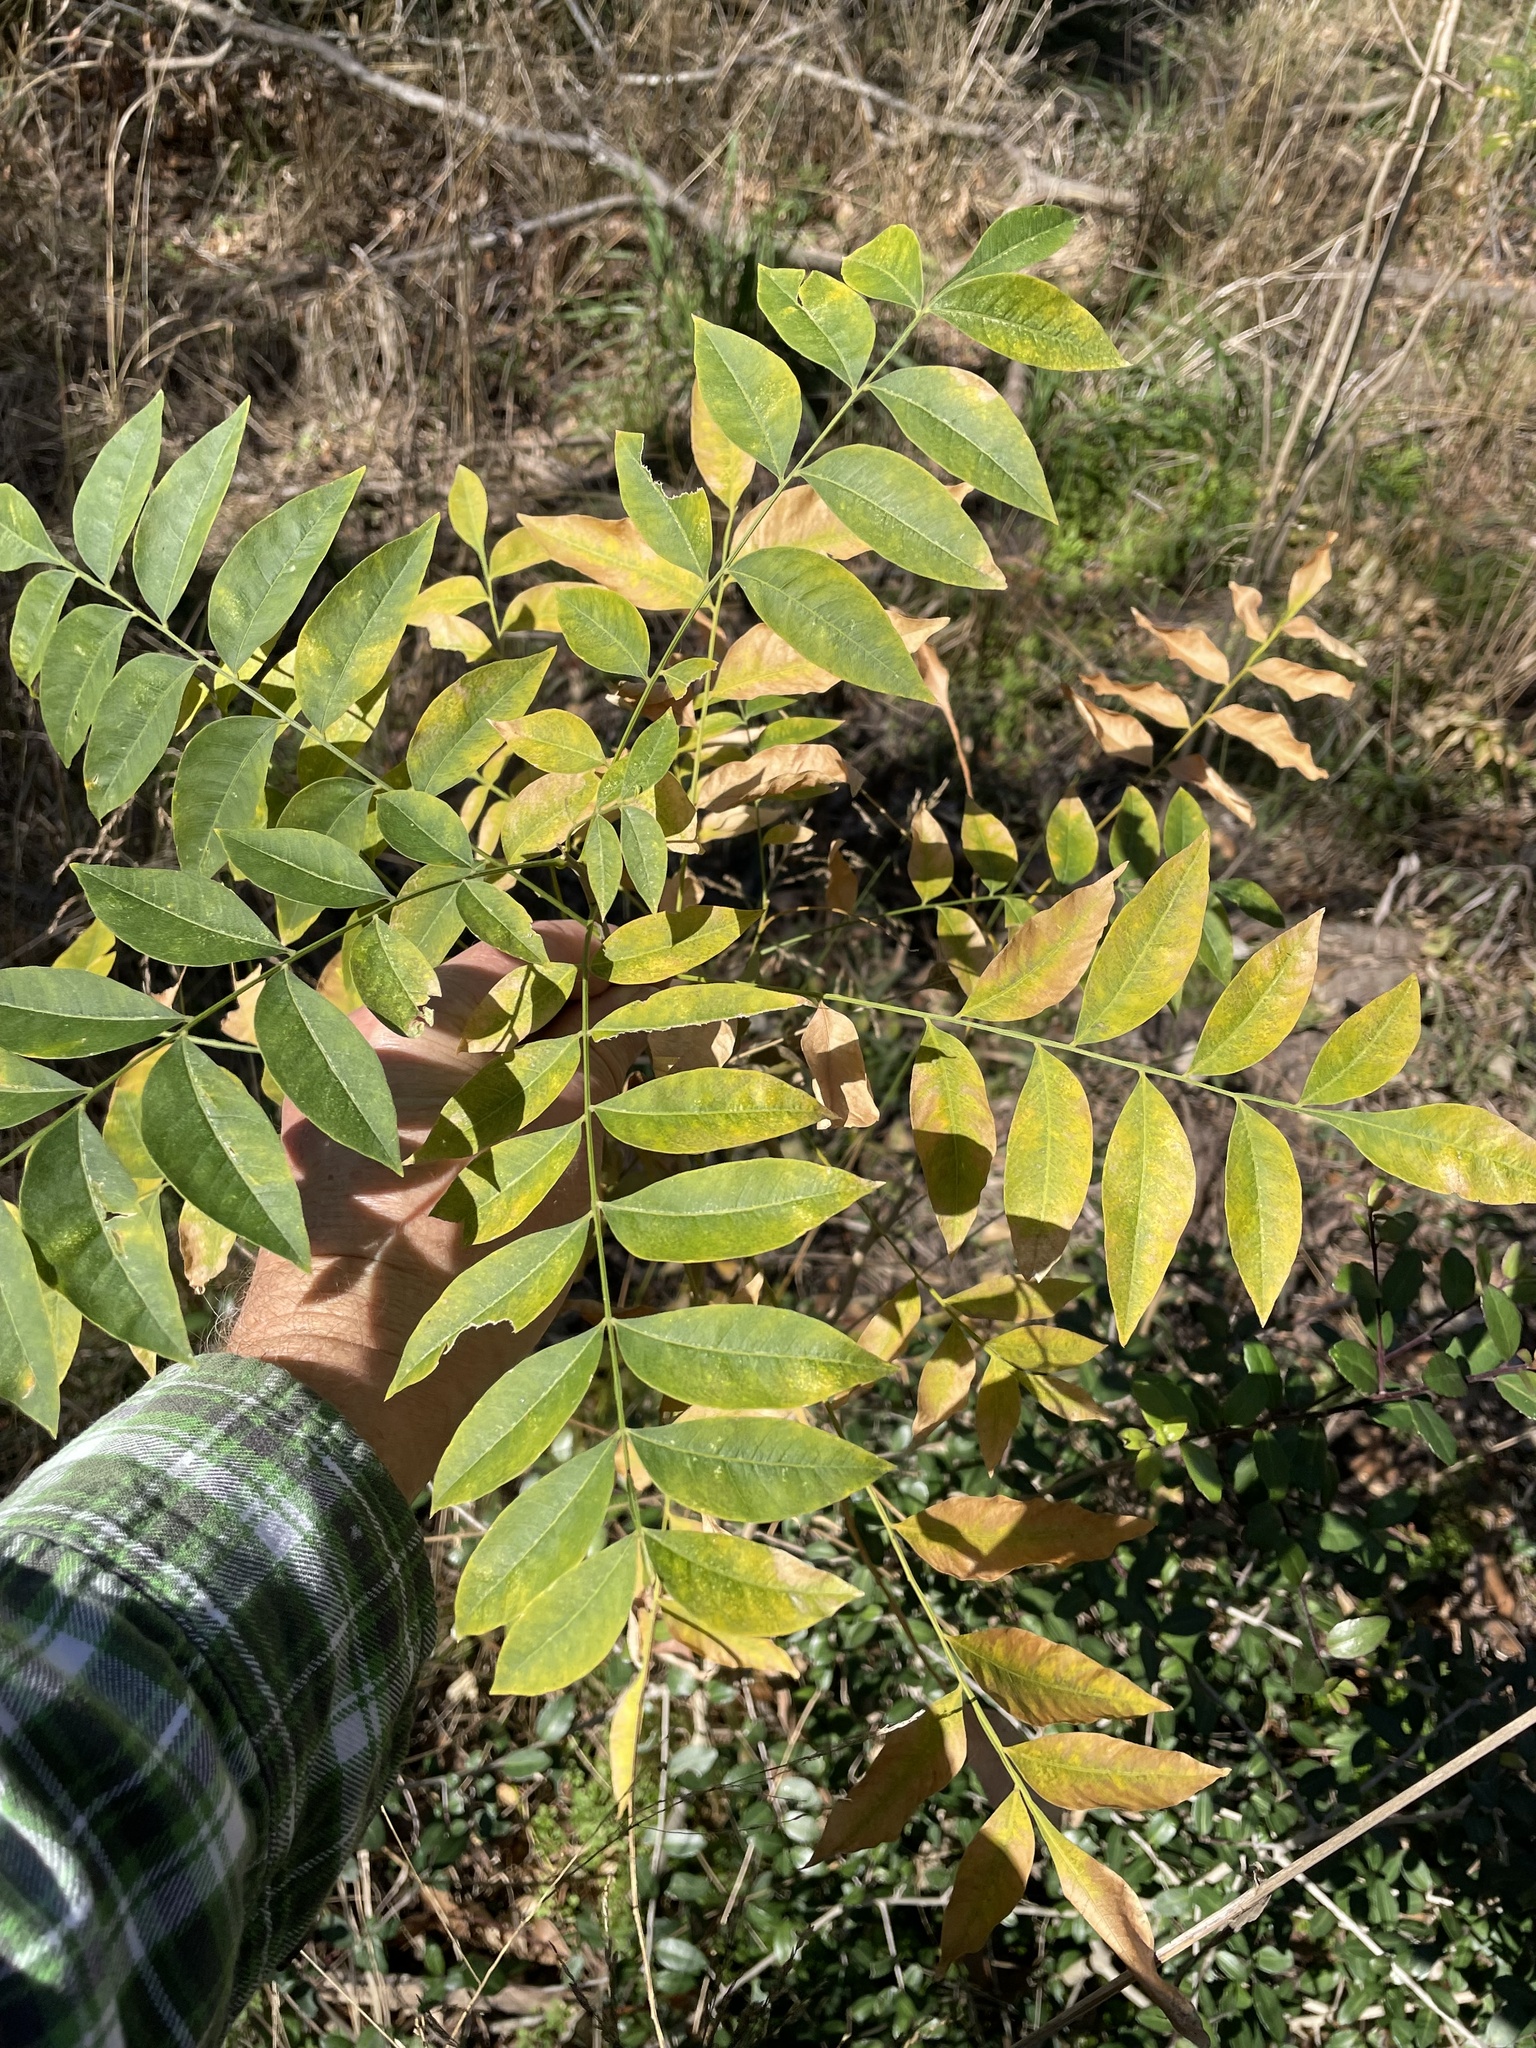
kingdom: Plantae
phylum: Tracheophyta
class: Magnoliopsida
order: Sapindales
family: Sapindaceae
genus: Sapindus
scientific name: Sapindus drummondii
